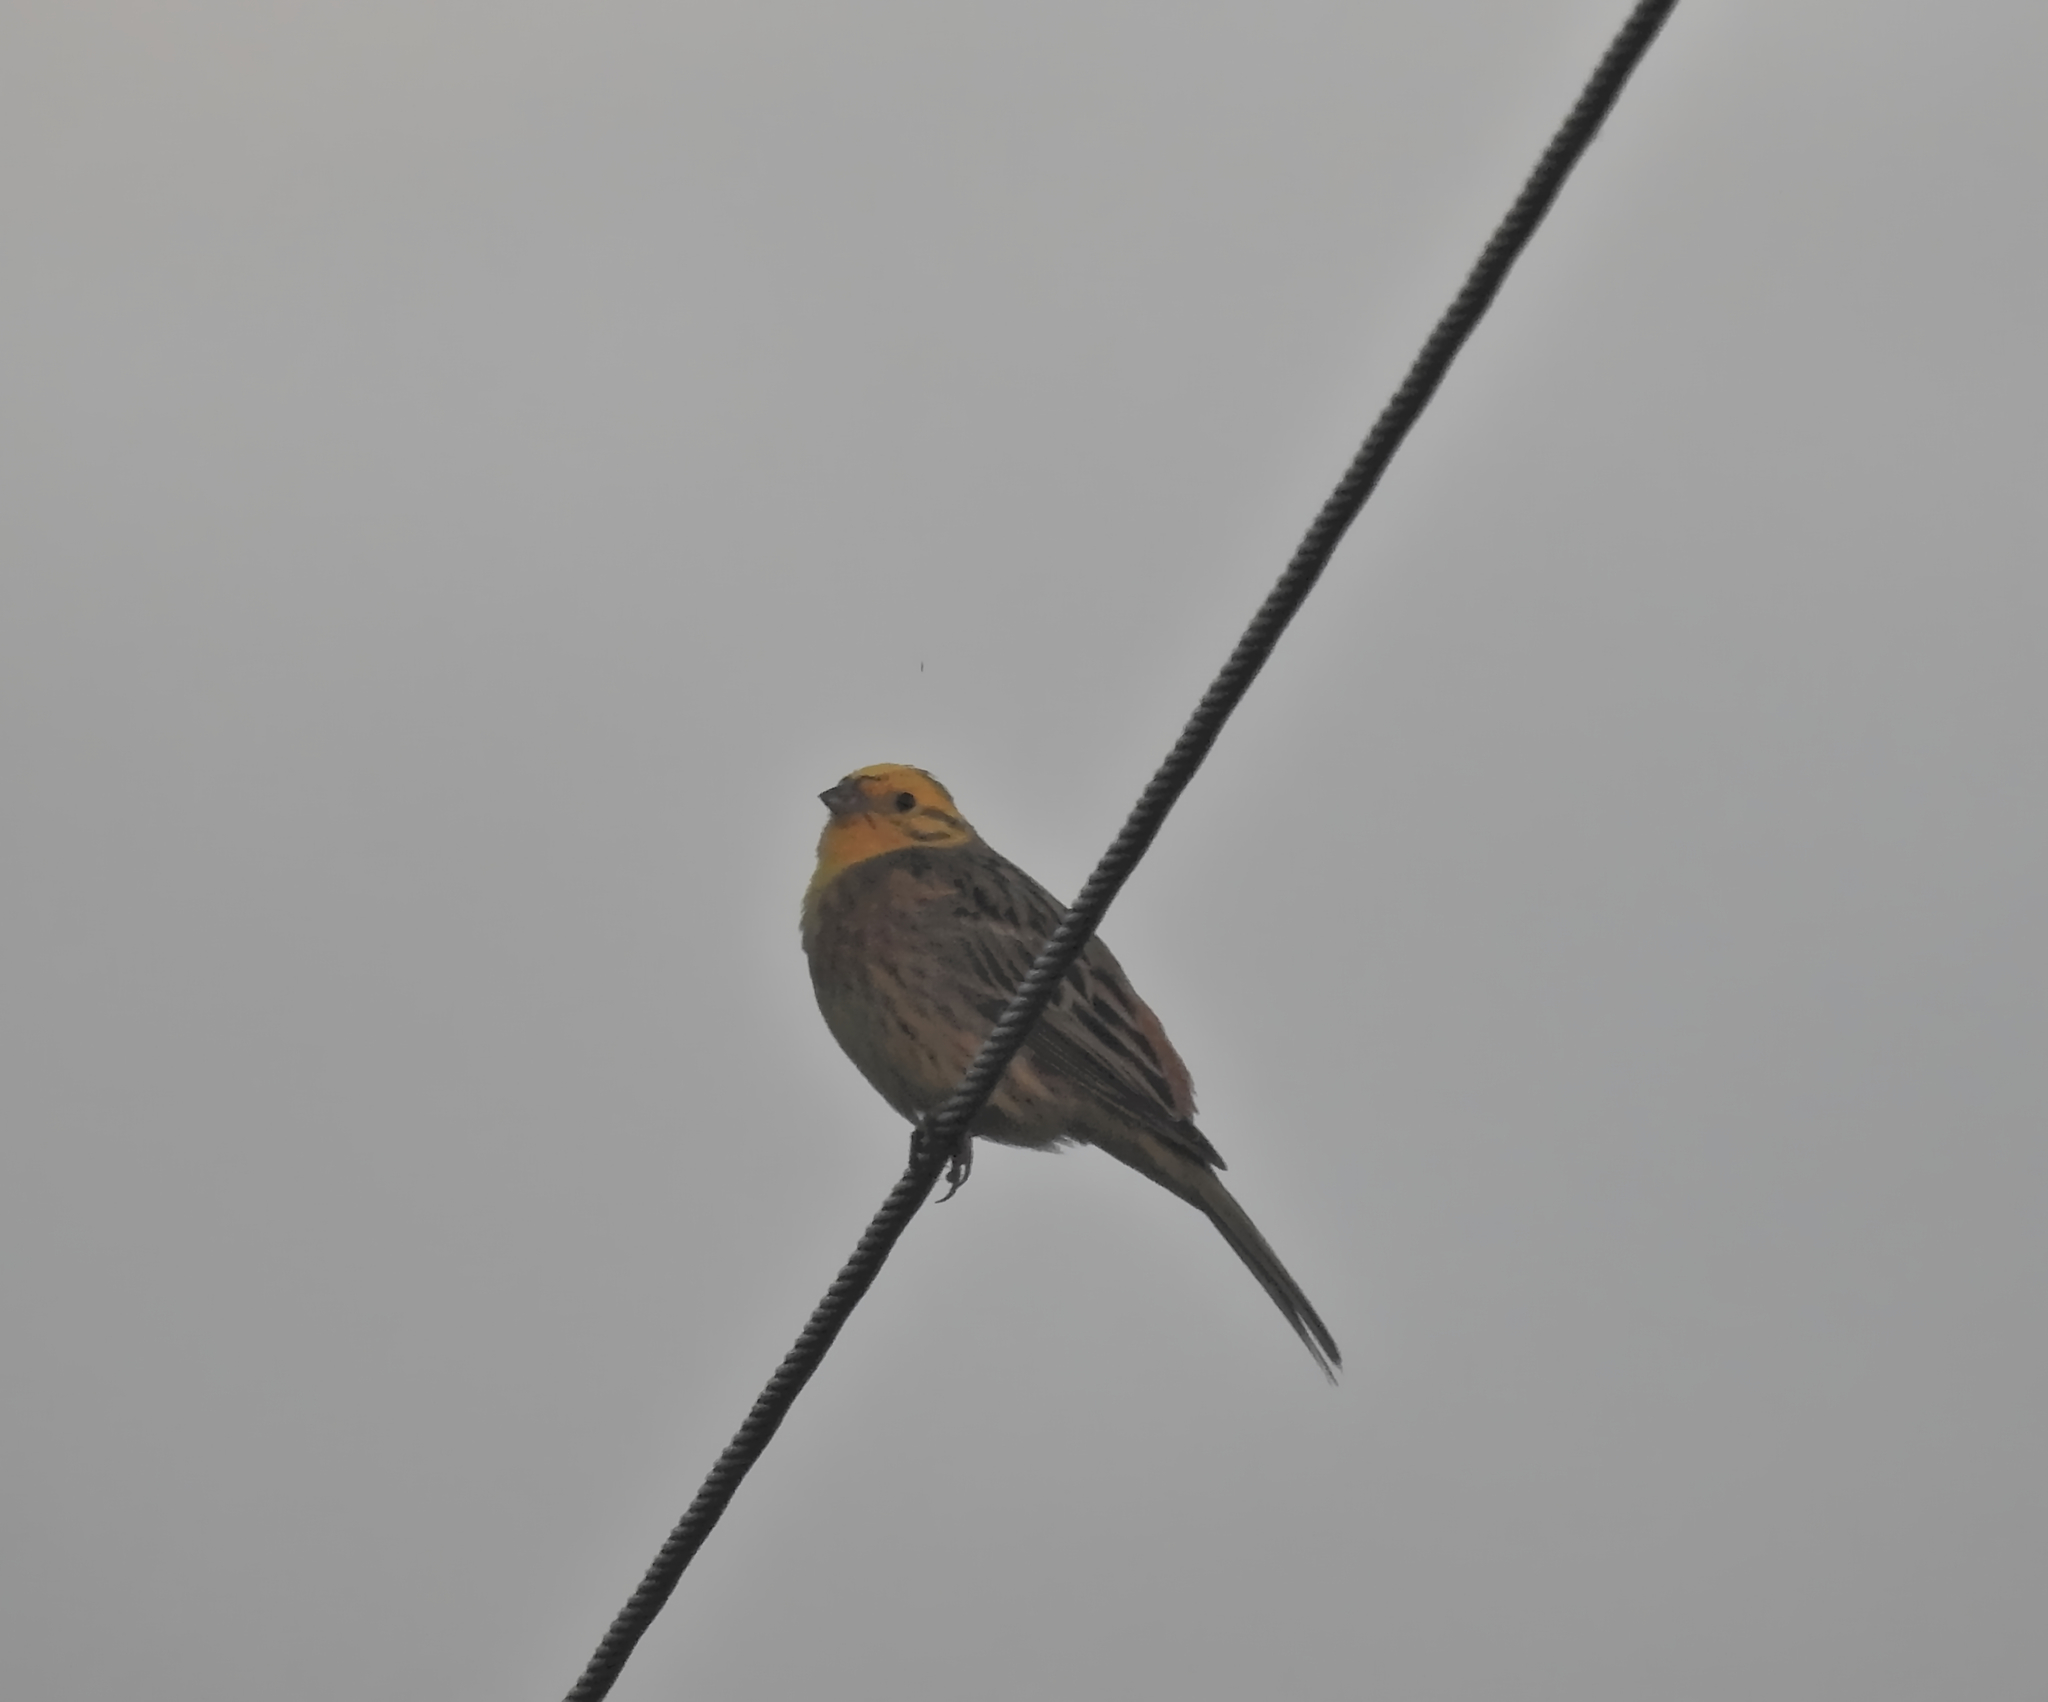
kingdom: Animalia
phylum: Chordata
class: Aves
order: Passeriformes
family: Emberizidae
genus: Emberiza
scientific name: Emberiza citrinella
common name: Yellowhammer
